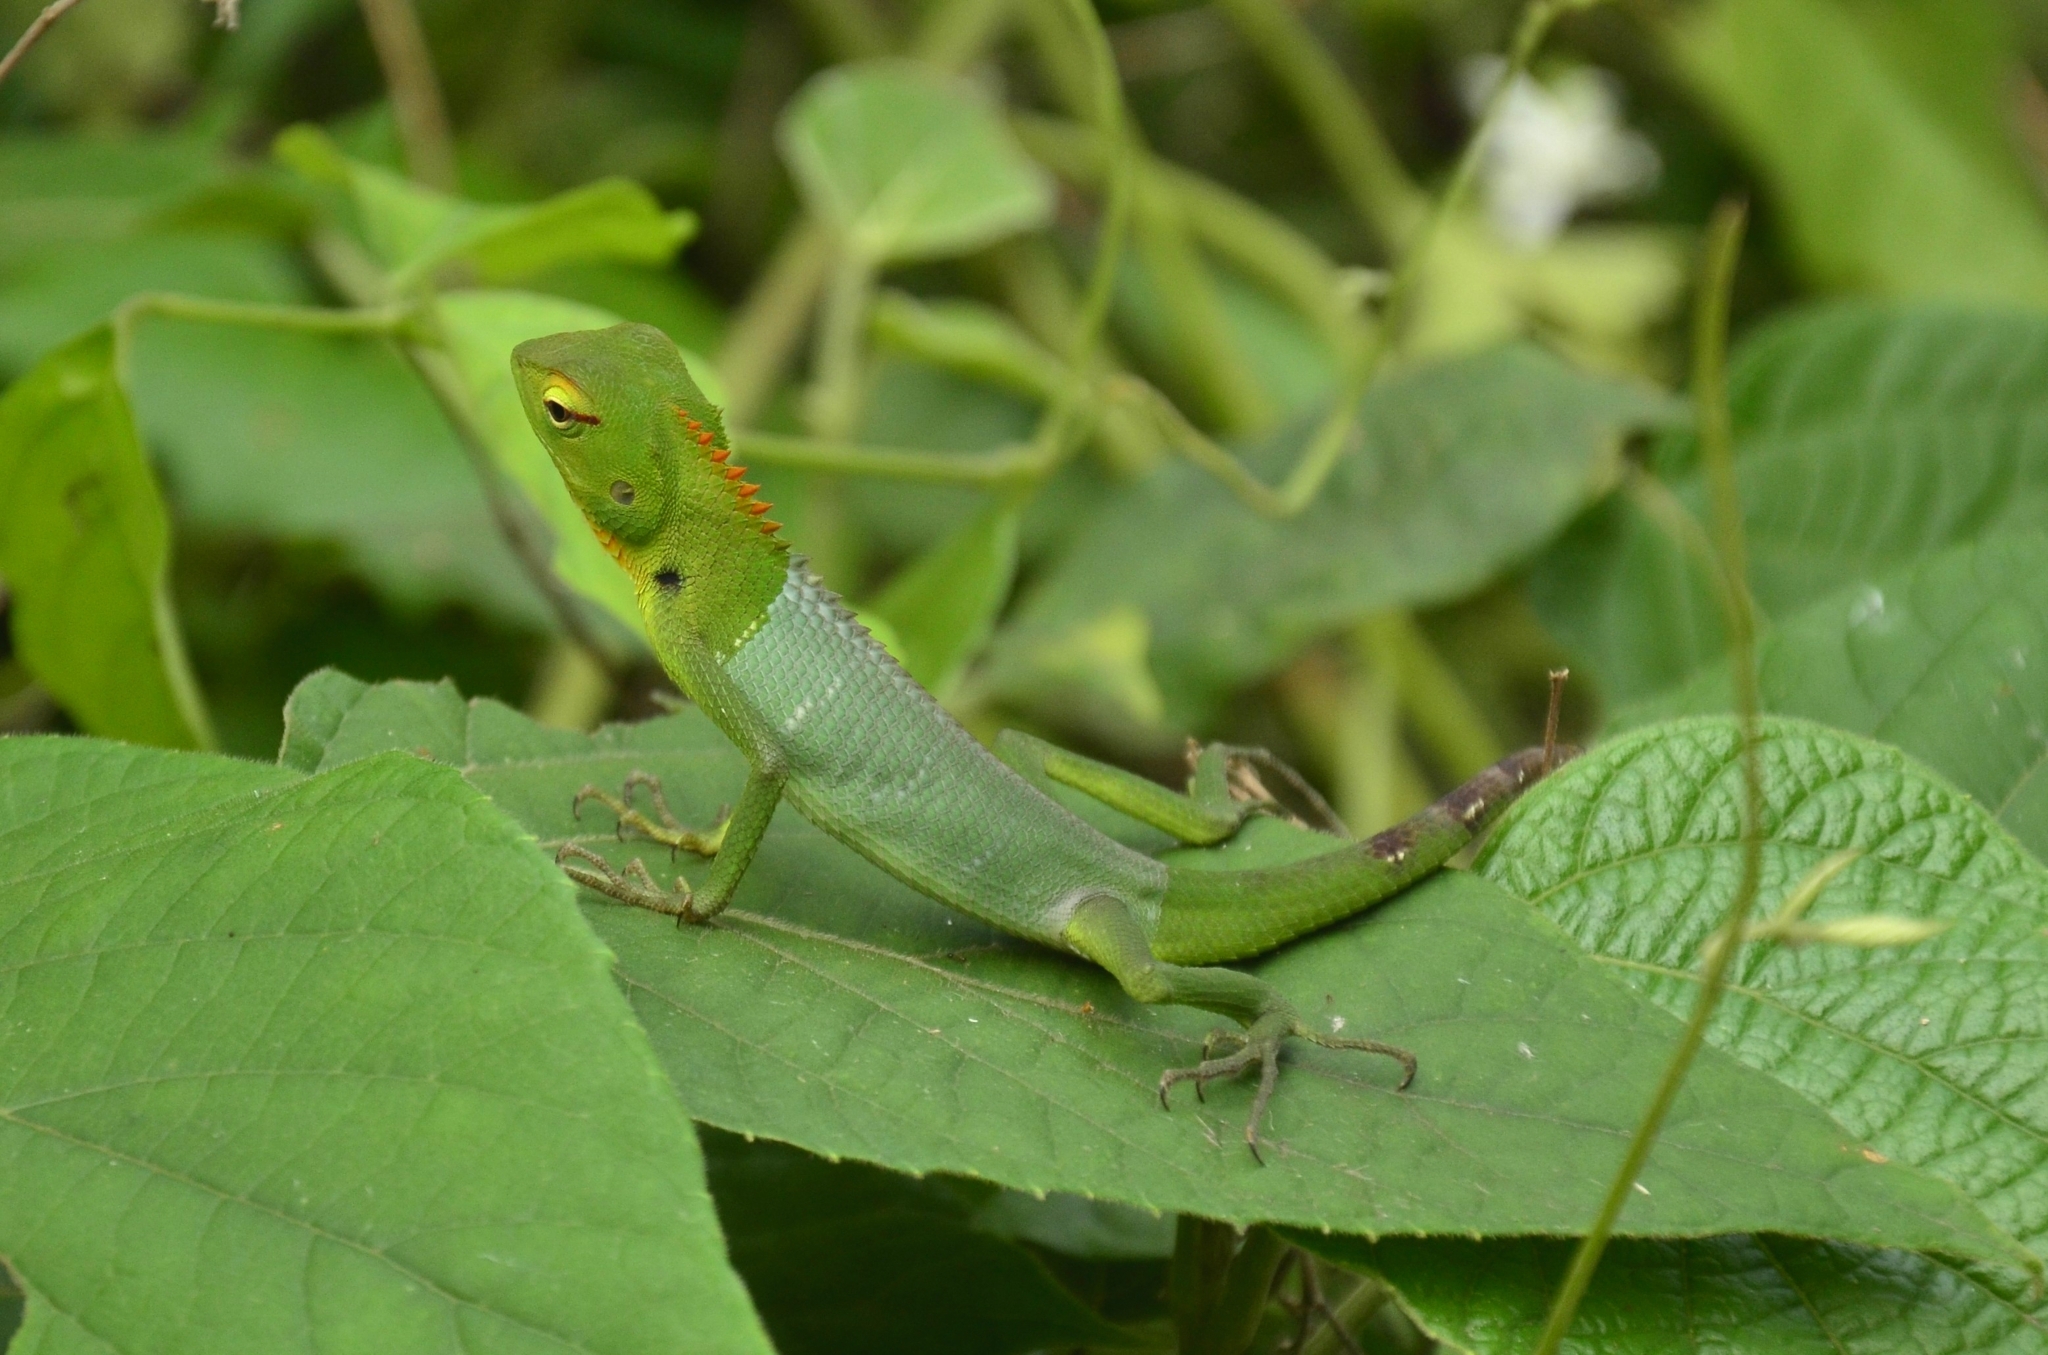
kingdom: Animalia
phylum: Chordata
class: Squamata
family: Agamidae
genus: Calotes
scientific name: Calotes calotes
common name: Common green forest lizard
